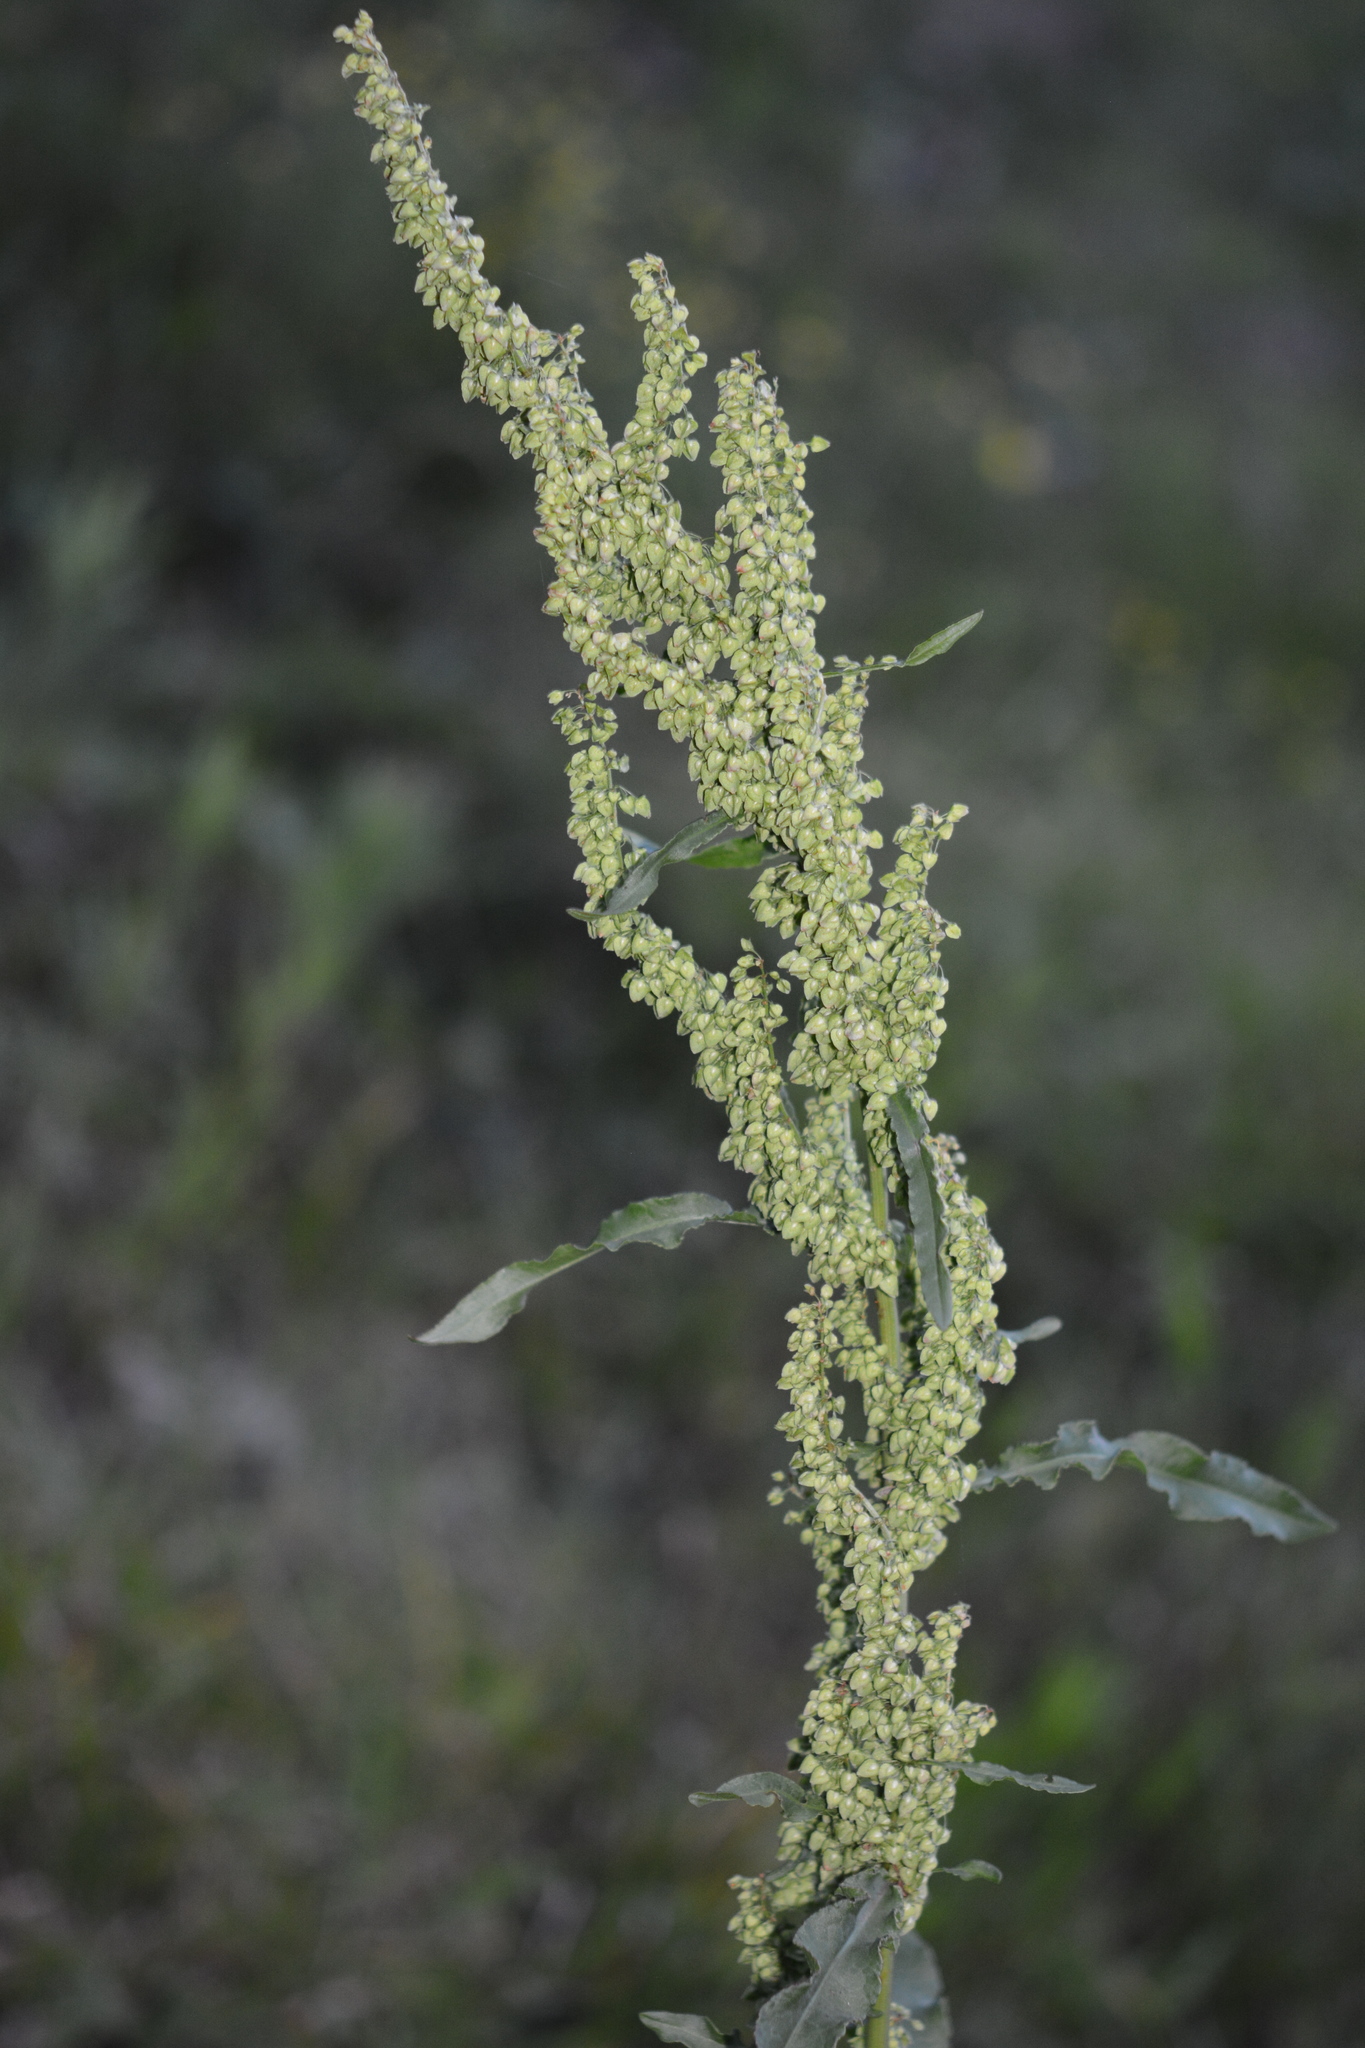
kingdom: Plantae
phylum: Tracheophyta
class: Magnoliopsida
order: Caryophyllales
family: Polygonaceae
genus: Rumex
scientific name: Rumex crispus
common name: Curled dock
